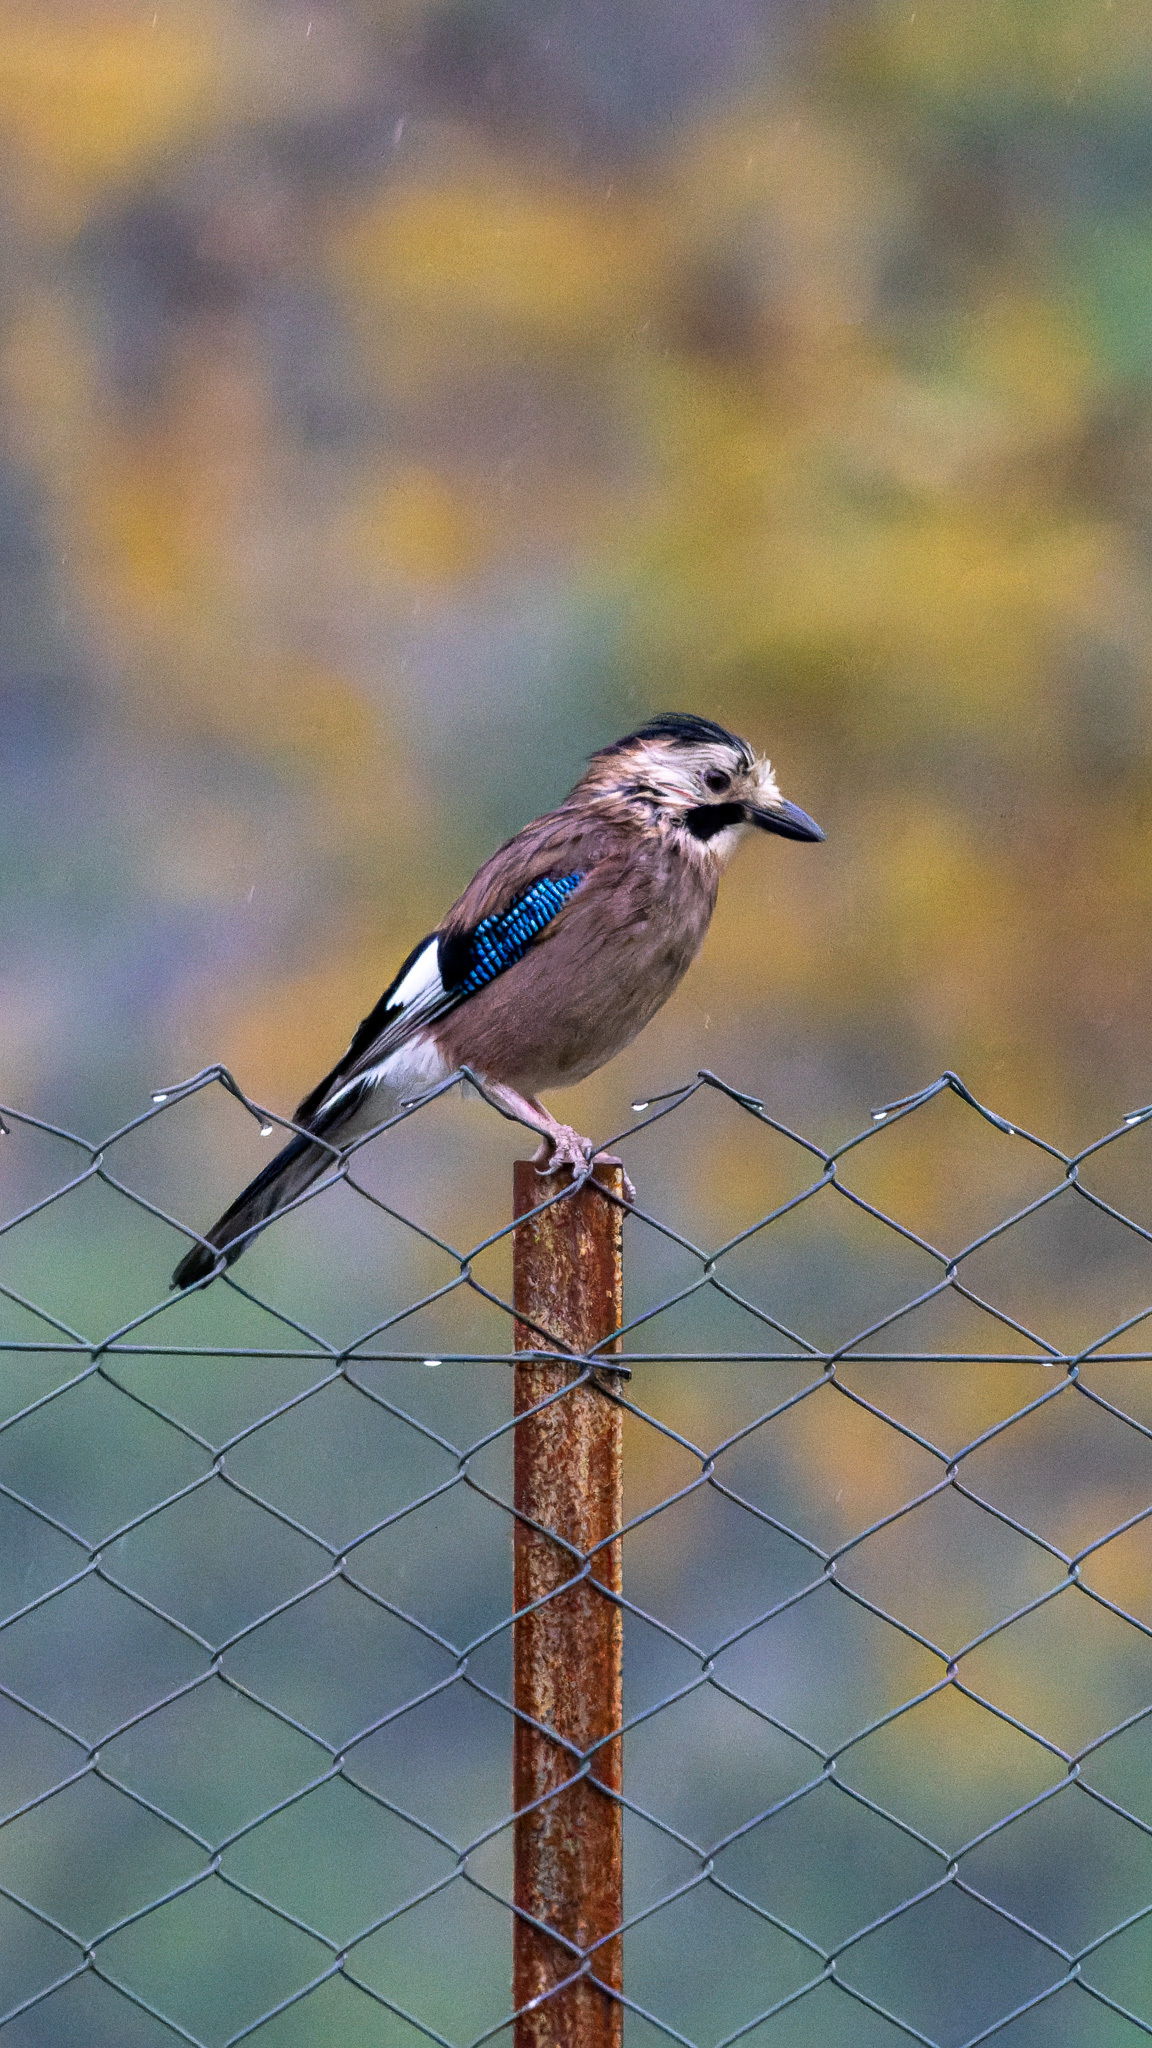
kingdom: Animalia
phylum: Chordata
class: Aves
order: Passeriformes
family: Corvidae
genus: Garrulus
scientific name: Garrulus glandarius
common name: Eurasian jay
